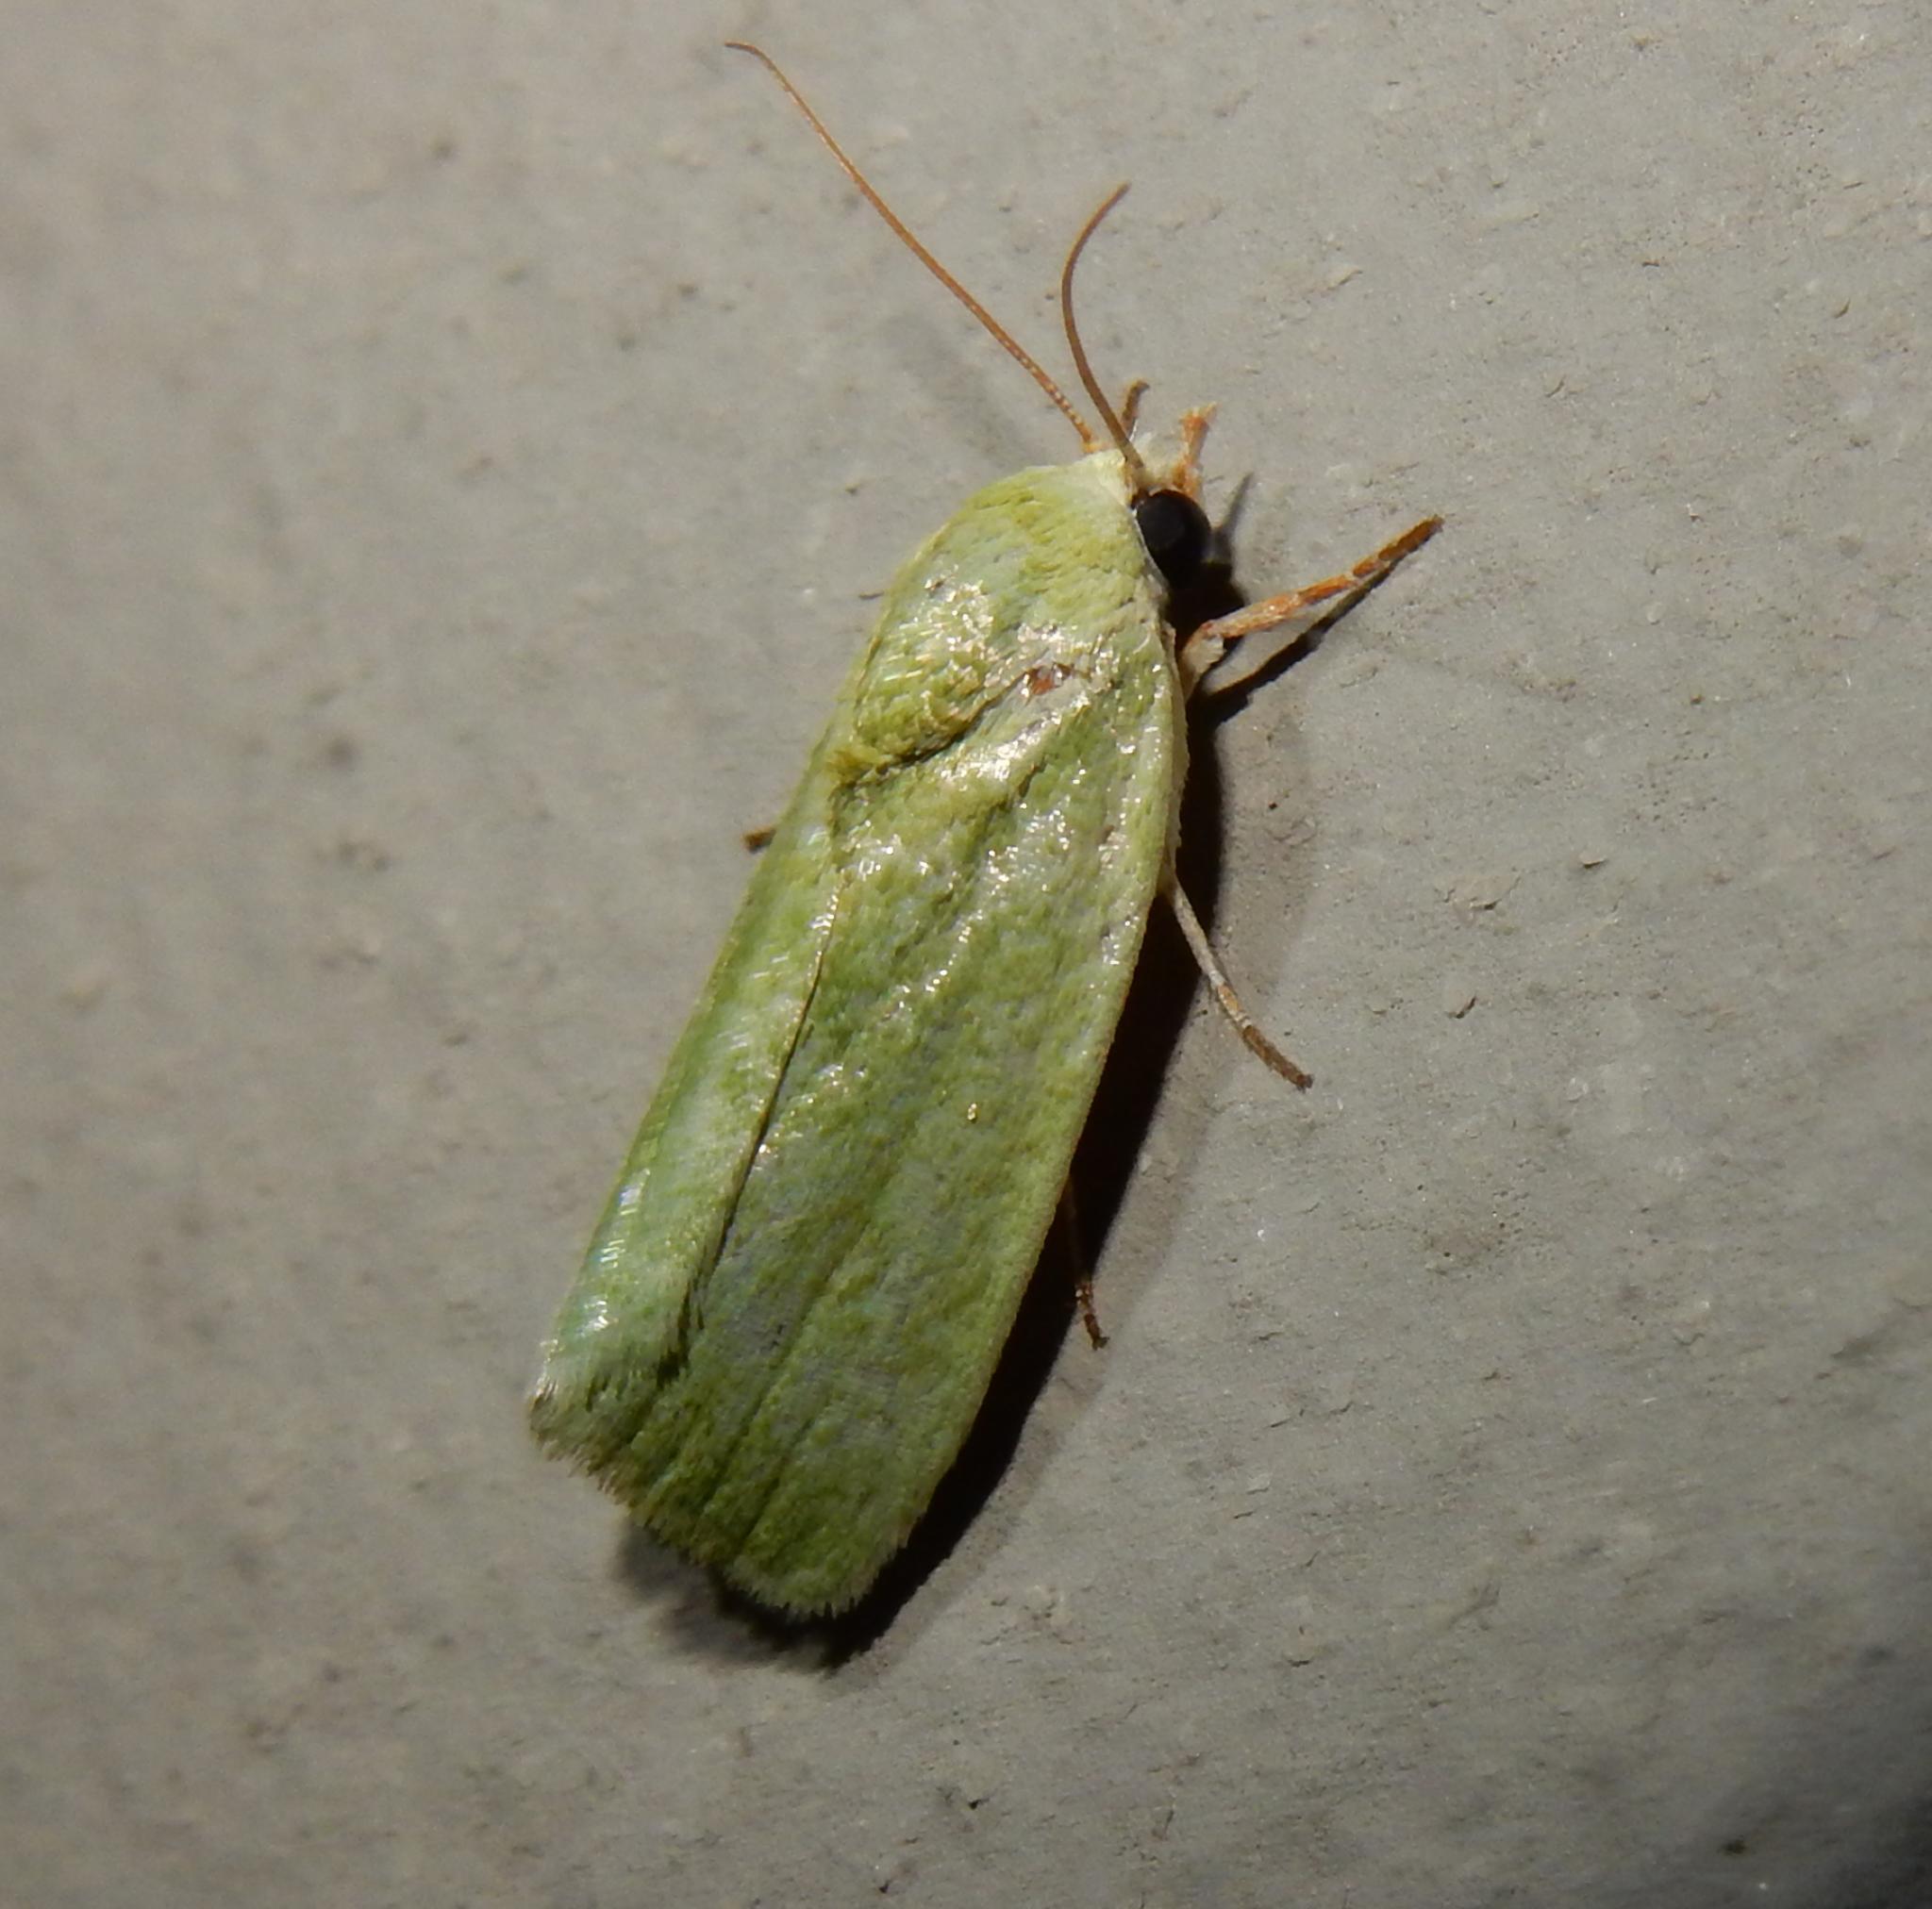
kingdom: Animalia
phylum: Arthropoda
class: Insecta
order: Lepidoptera
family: Nolidae
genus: Earias
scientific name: Earias insulana
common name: Egyptian bollworm
